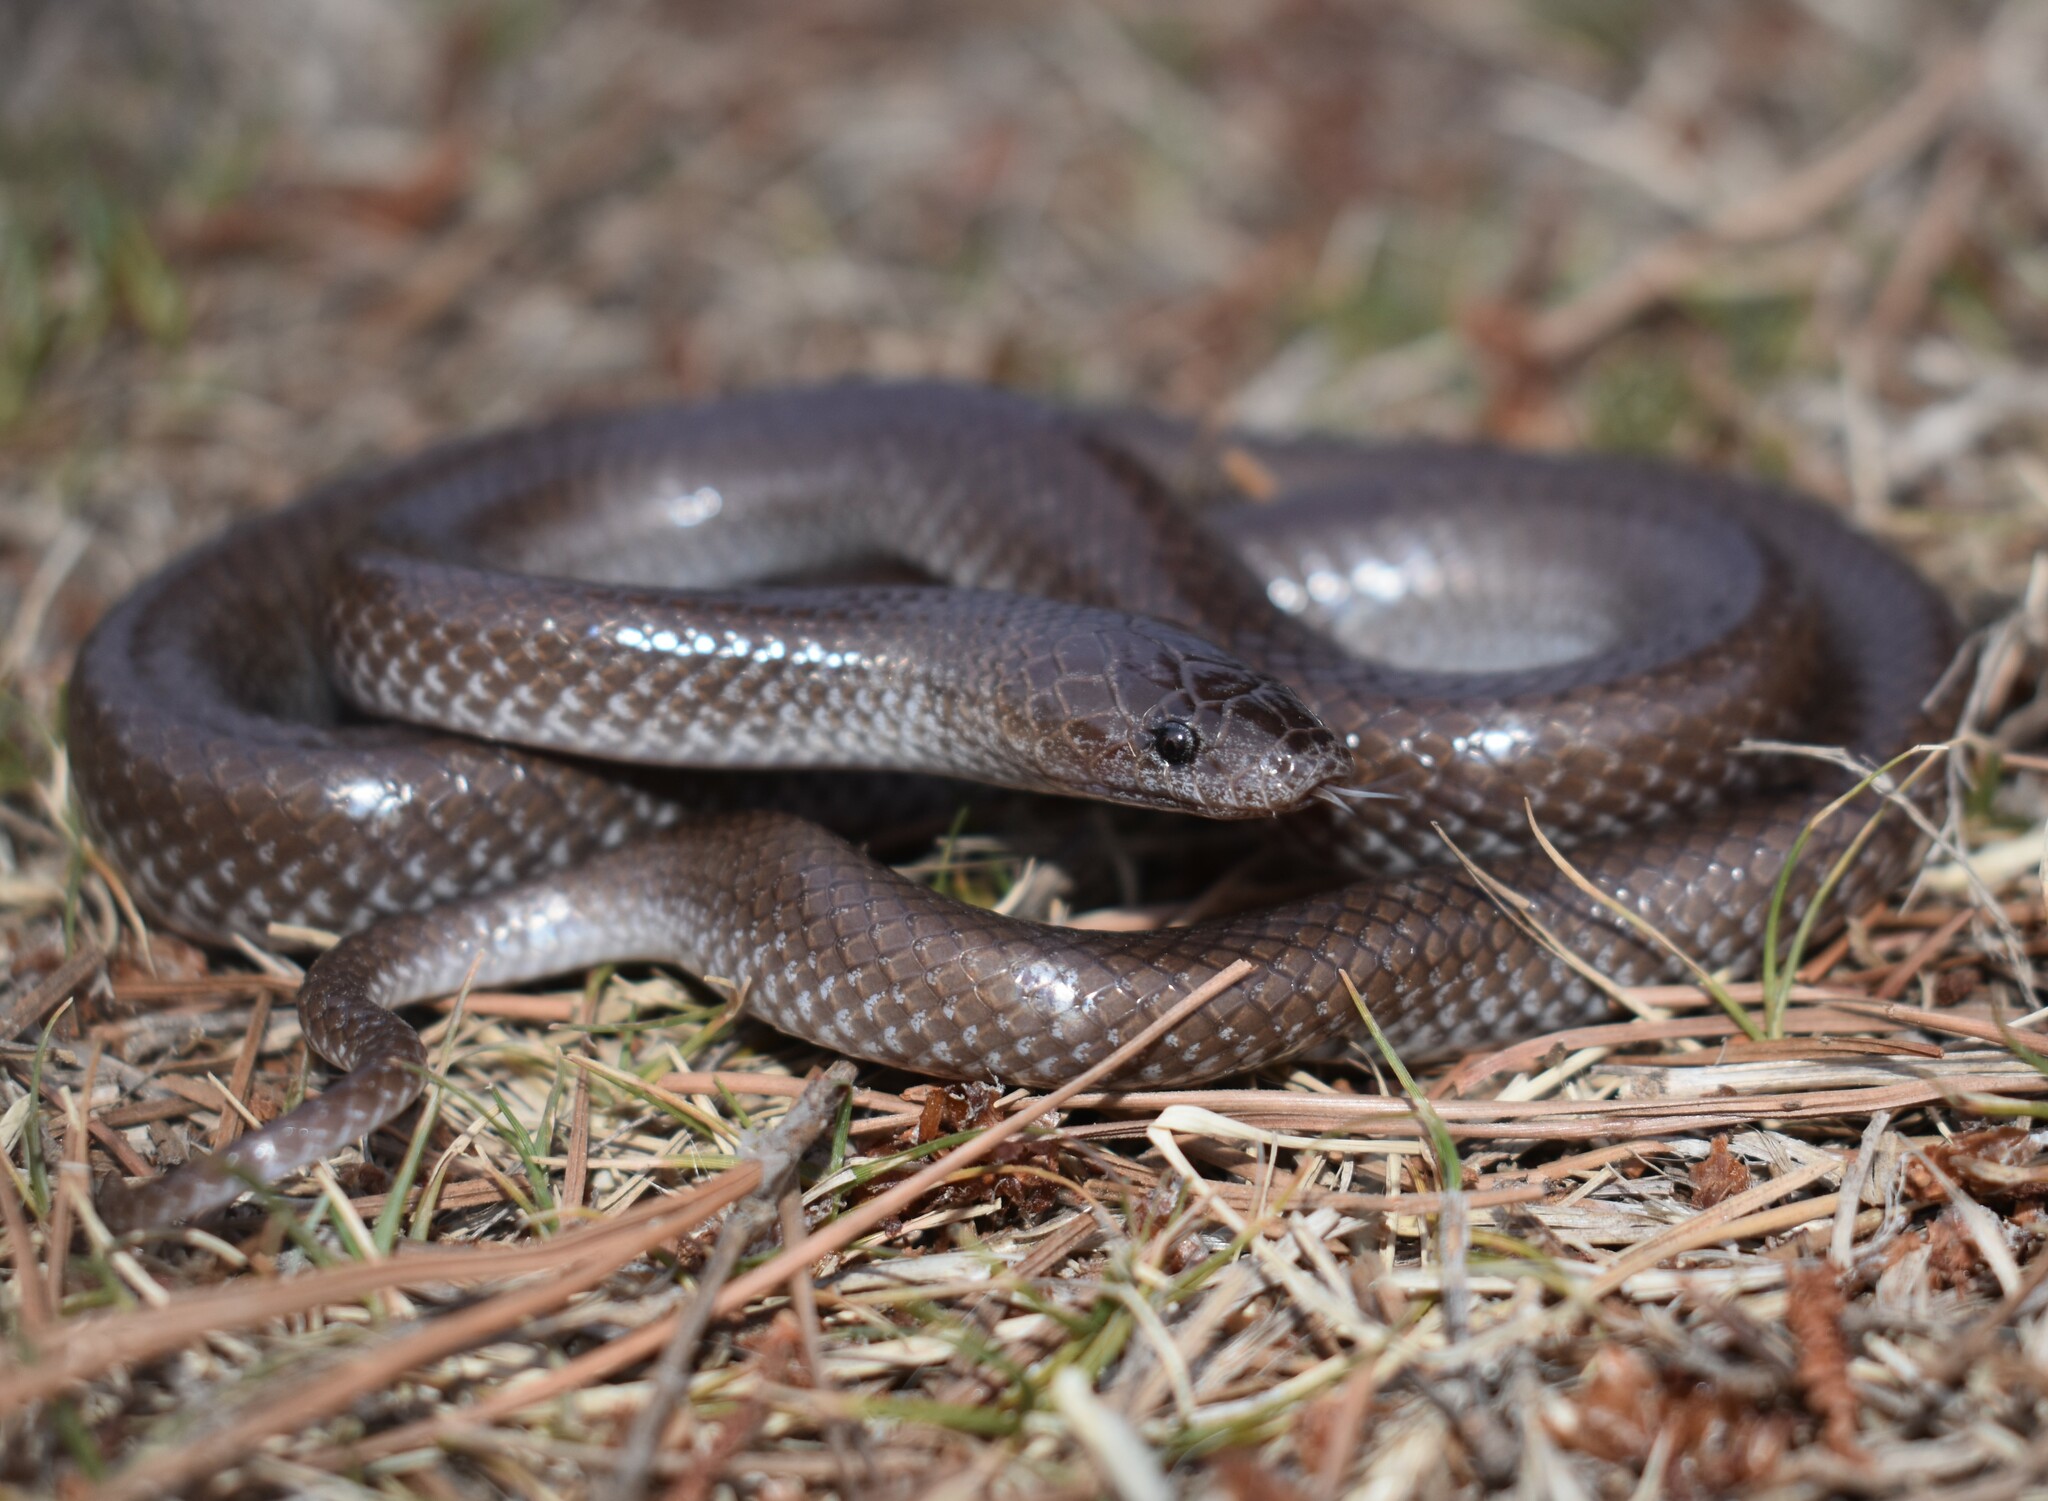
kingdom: Animalia
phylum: Chordata
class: Squamata
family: Lamprophiidae
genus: Lycophidion
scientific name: Lycophidion capense
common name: Cape wolf snake
